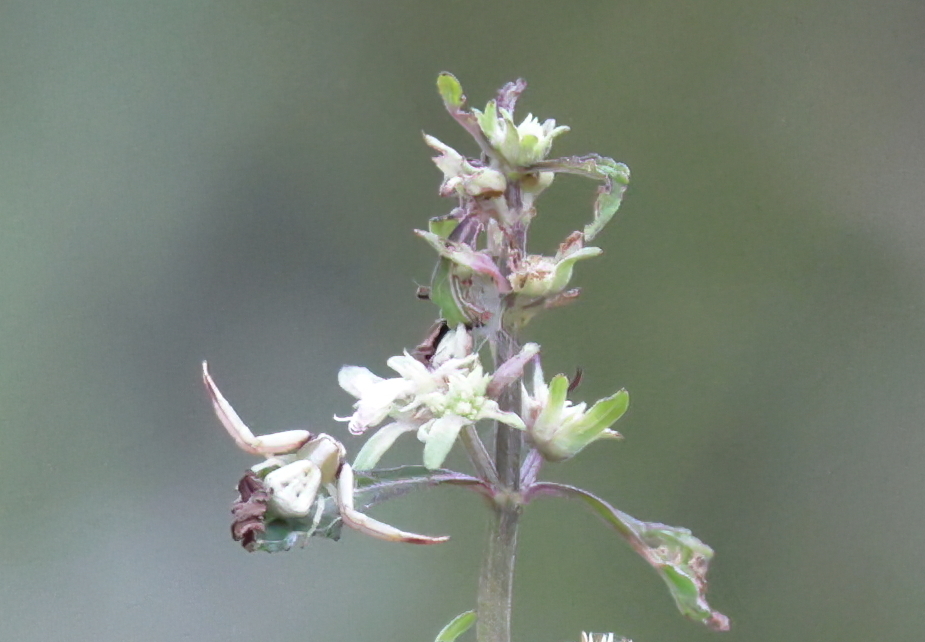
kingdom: Animalia
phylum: Arthropoda
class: Arachnida
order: Araneae
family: Thomisidae
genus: Misumenoides
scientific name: Misumenoides formosipes
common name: White-banded crab spider
